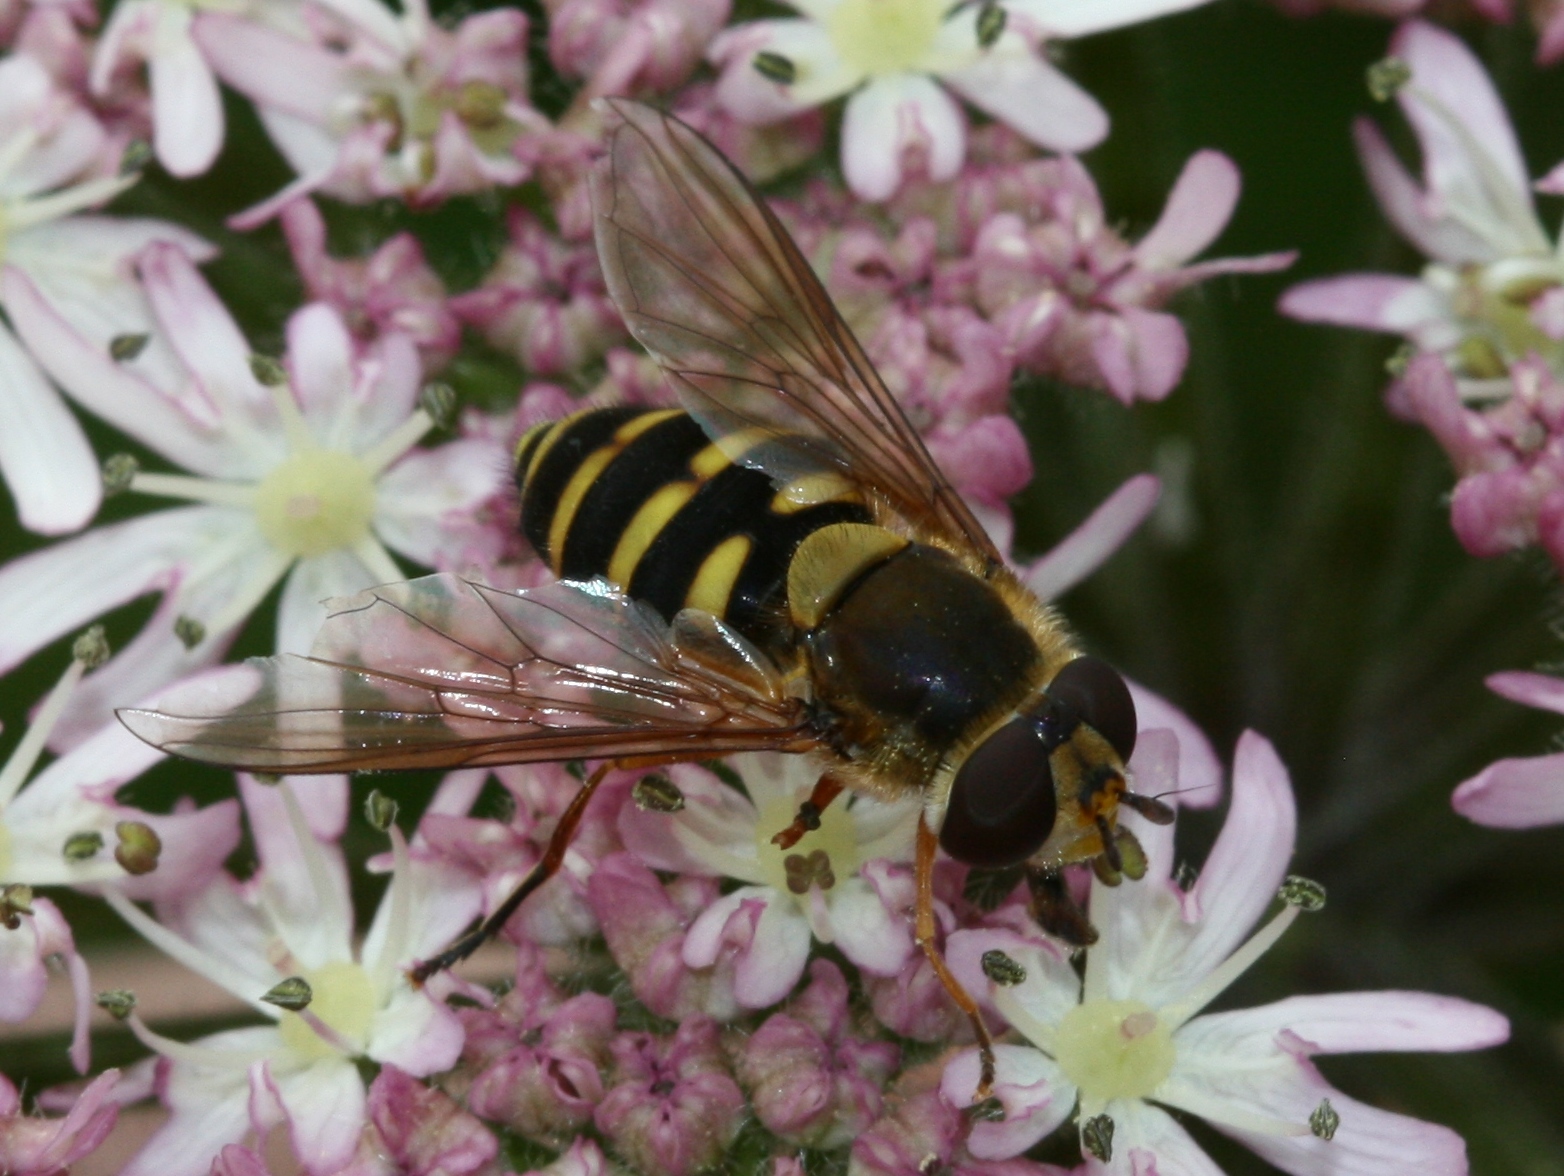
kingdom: Animalia
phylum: Arthropoda
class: Insecta
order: Diptera
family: Syrphidae
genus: Syrphus
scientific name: Syrphus ribesii
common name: Common flower fly
